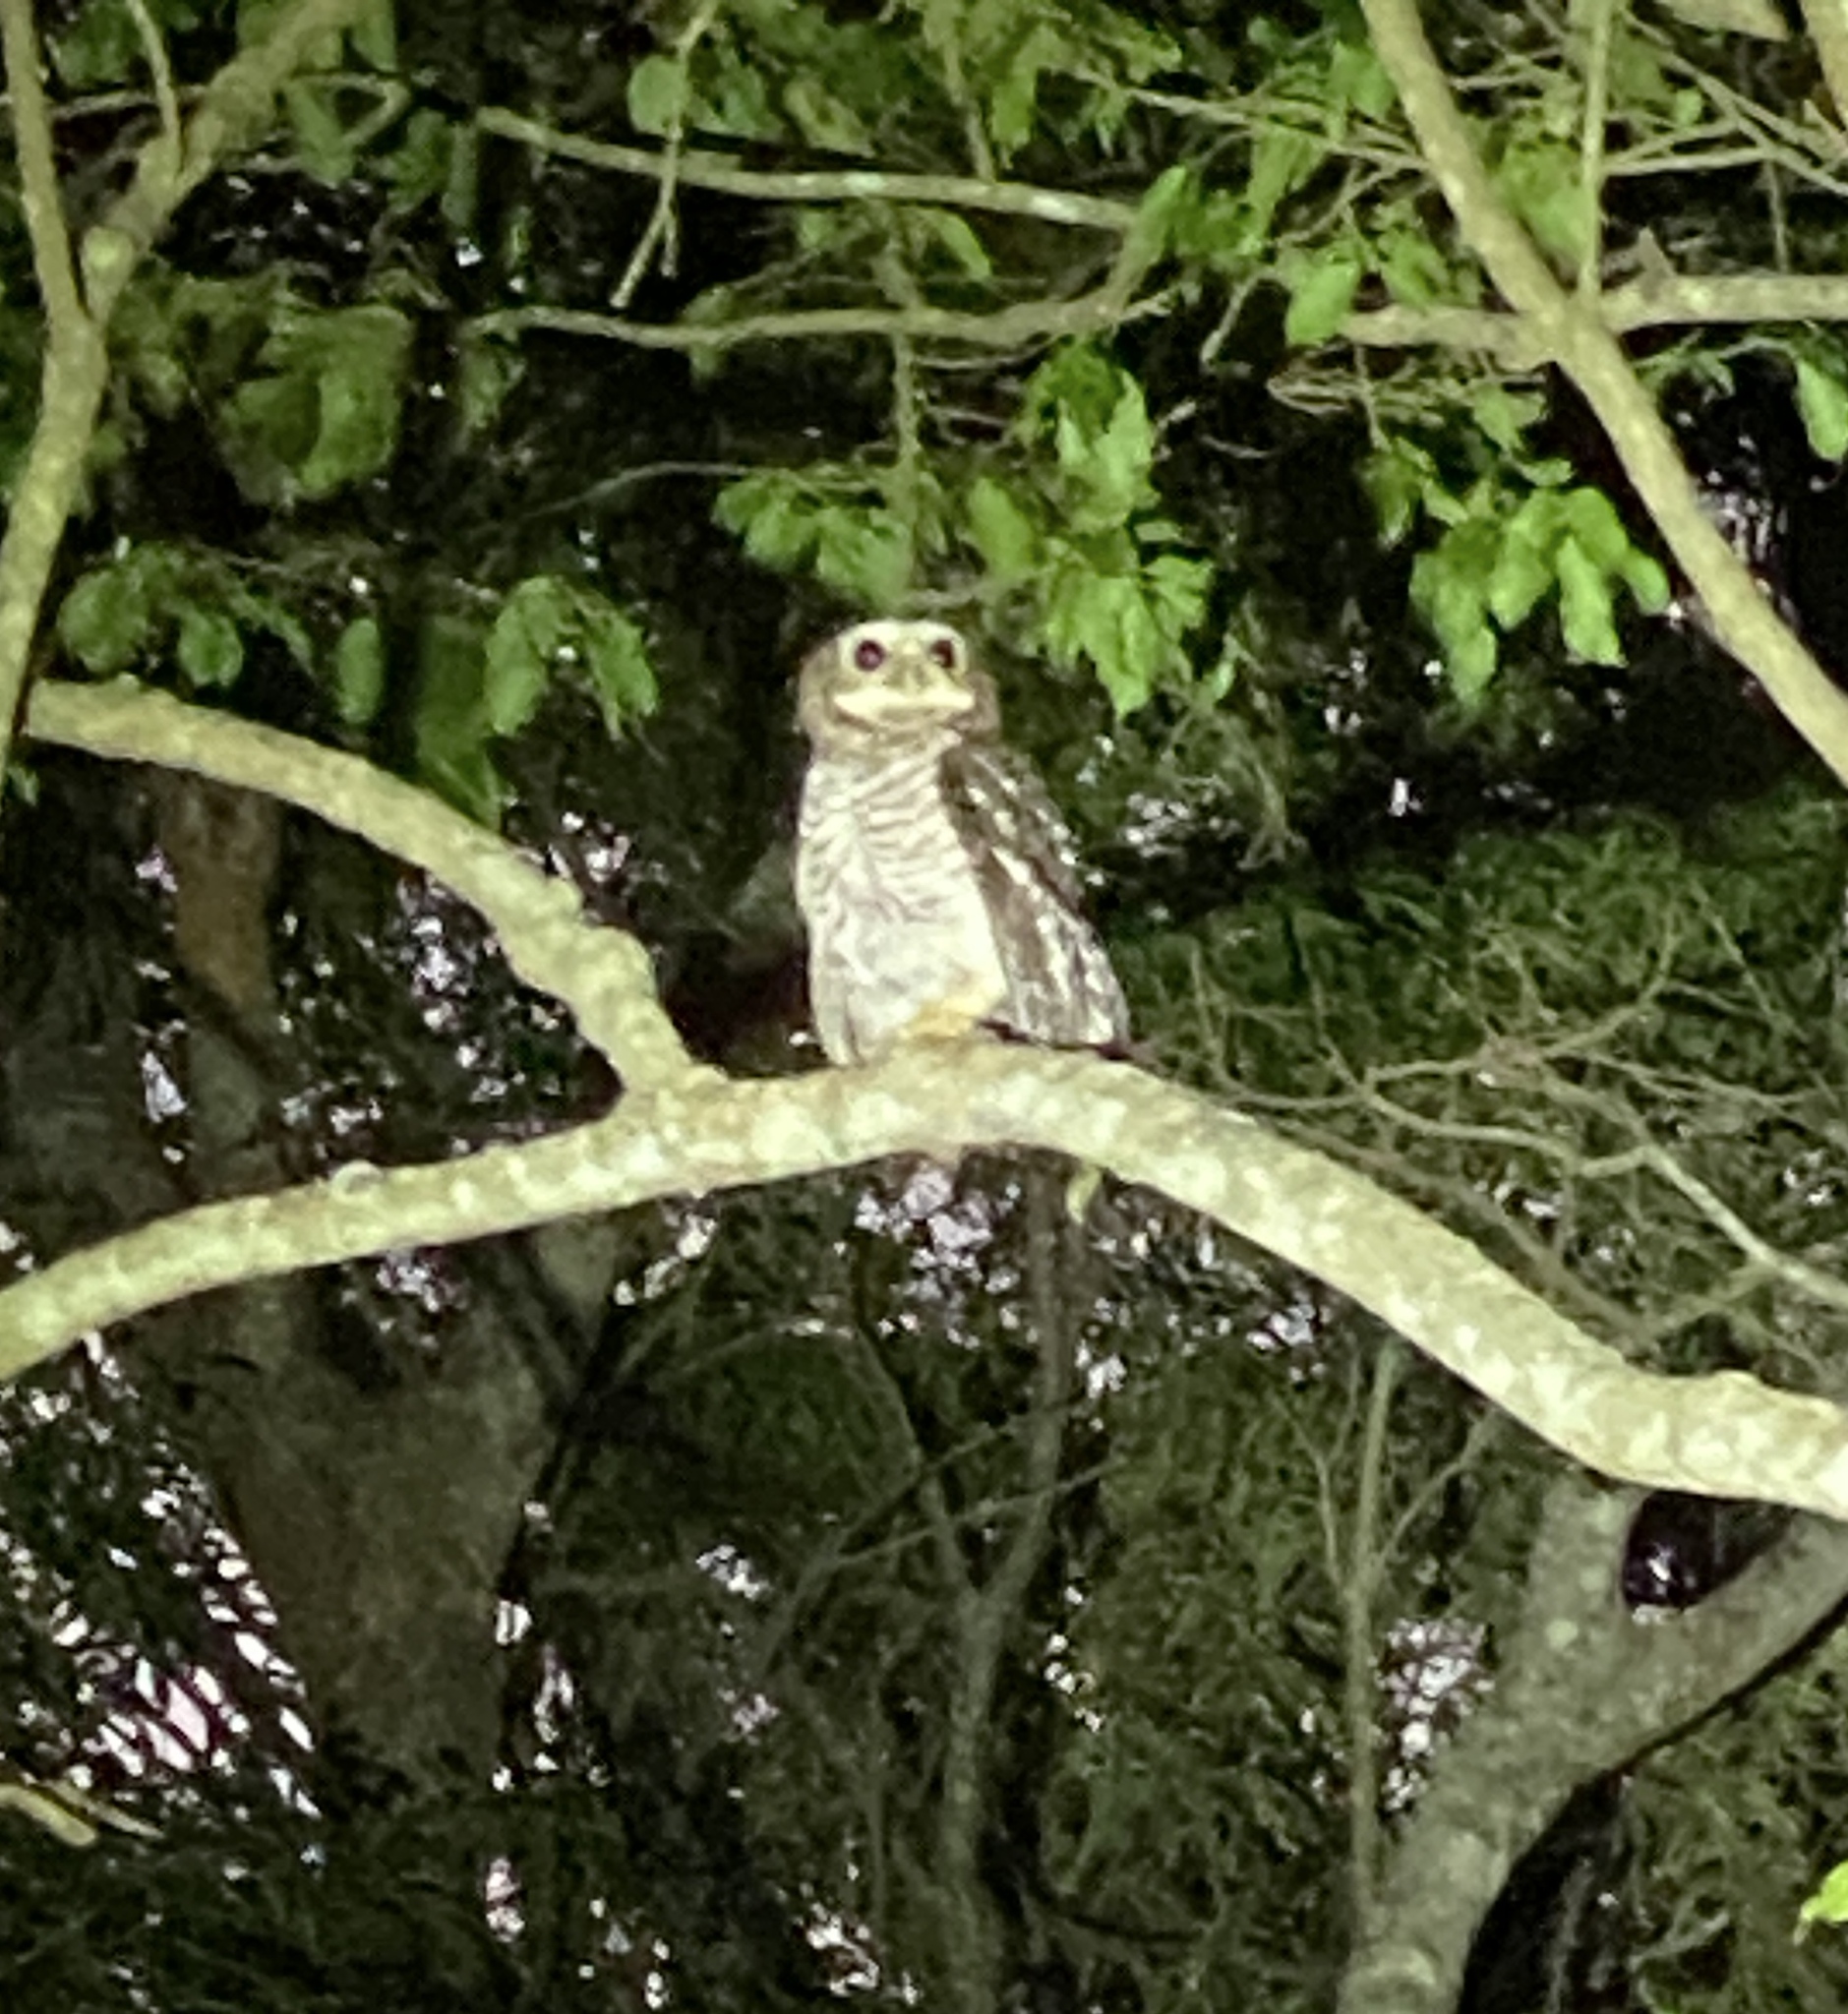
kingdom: Animalia
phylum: Chordata
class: Aves
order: Strigiformes
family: Strigidae
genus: Ninox
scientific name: Ninox superciliaris
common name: White-browed hawk-owl
